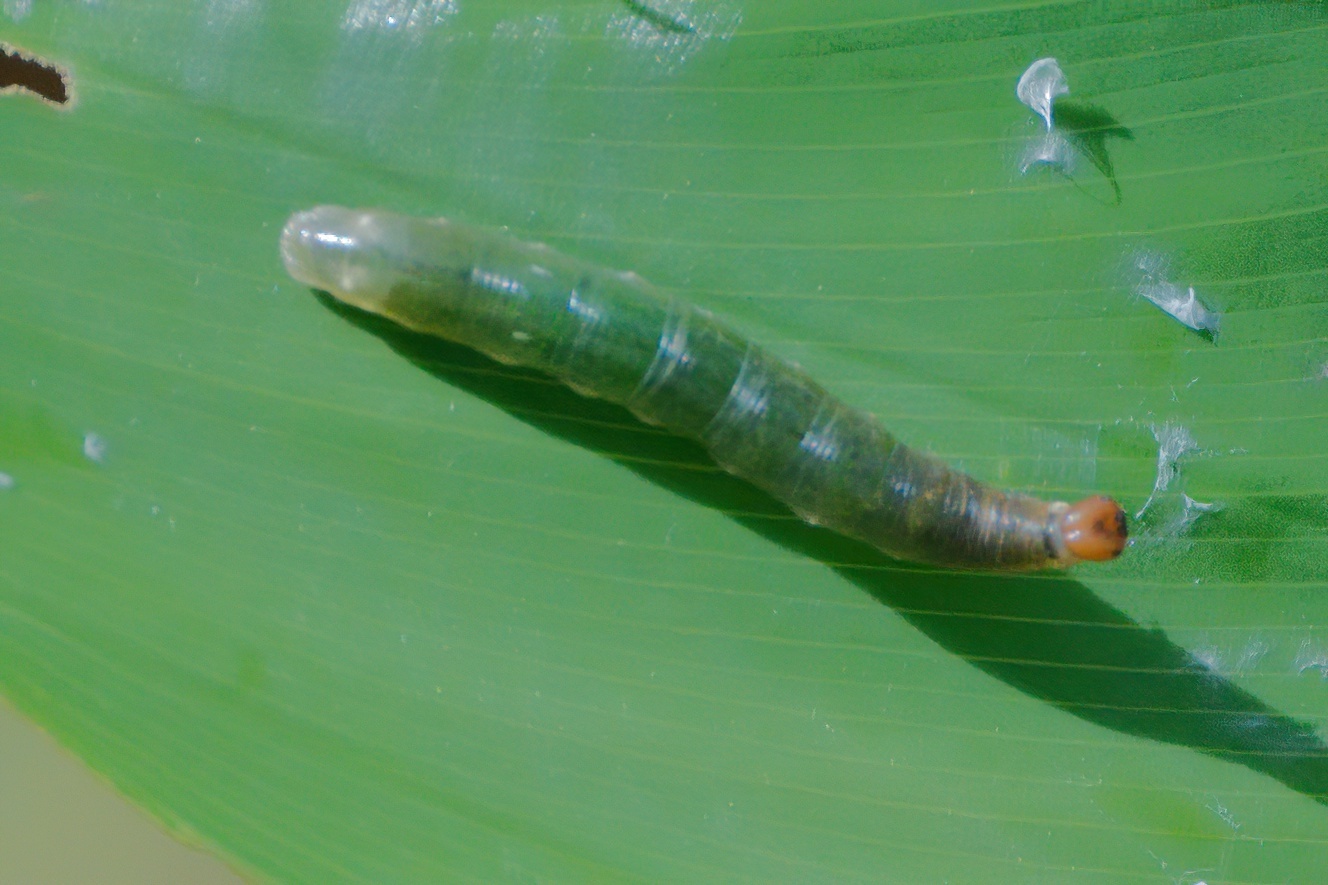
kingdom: Animalia
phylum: Arthropoda
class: Insecta
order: Lepidoptera
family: Hesperiidae
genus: Calpodes
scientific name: Calpodes ethlius
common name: Brazilian skipper
